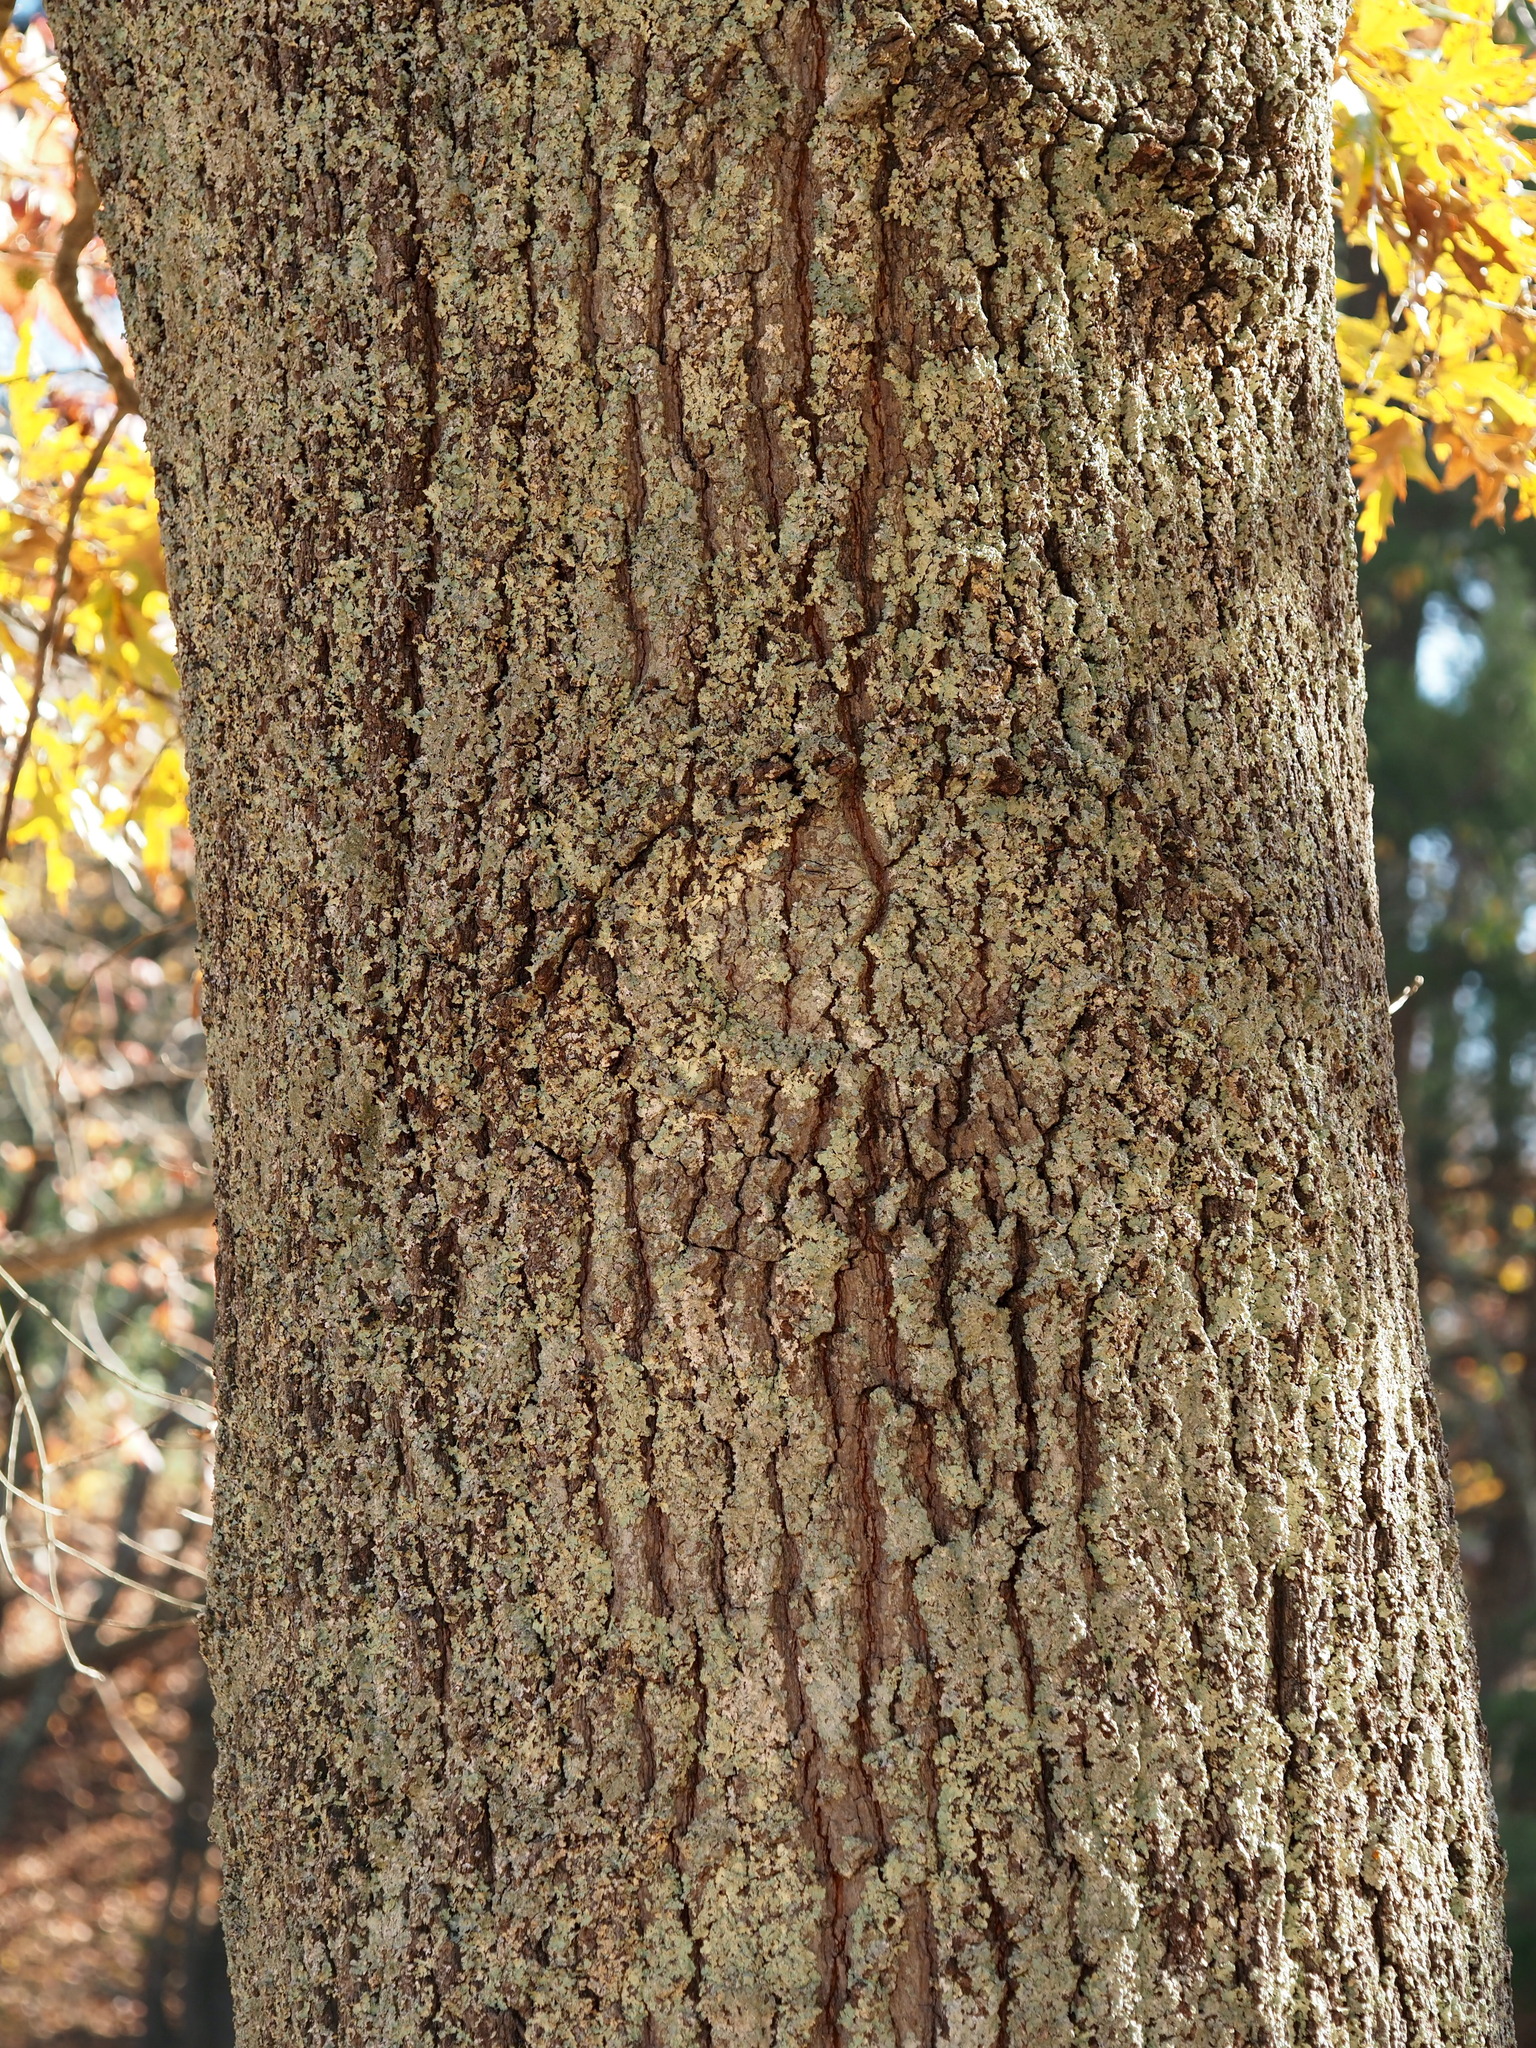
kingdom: Plantae
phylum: Tracheophyta
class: Magnoliopsida
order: Fagales
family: Fagaceae
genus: Quercus
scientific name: Quercus falcata
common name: Southern red oak
